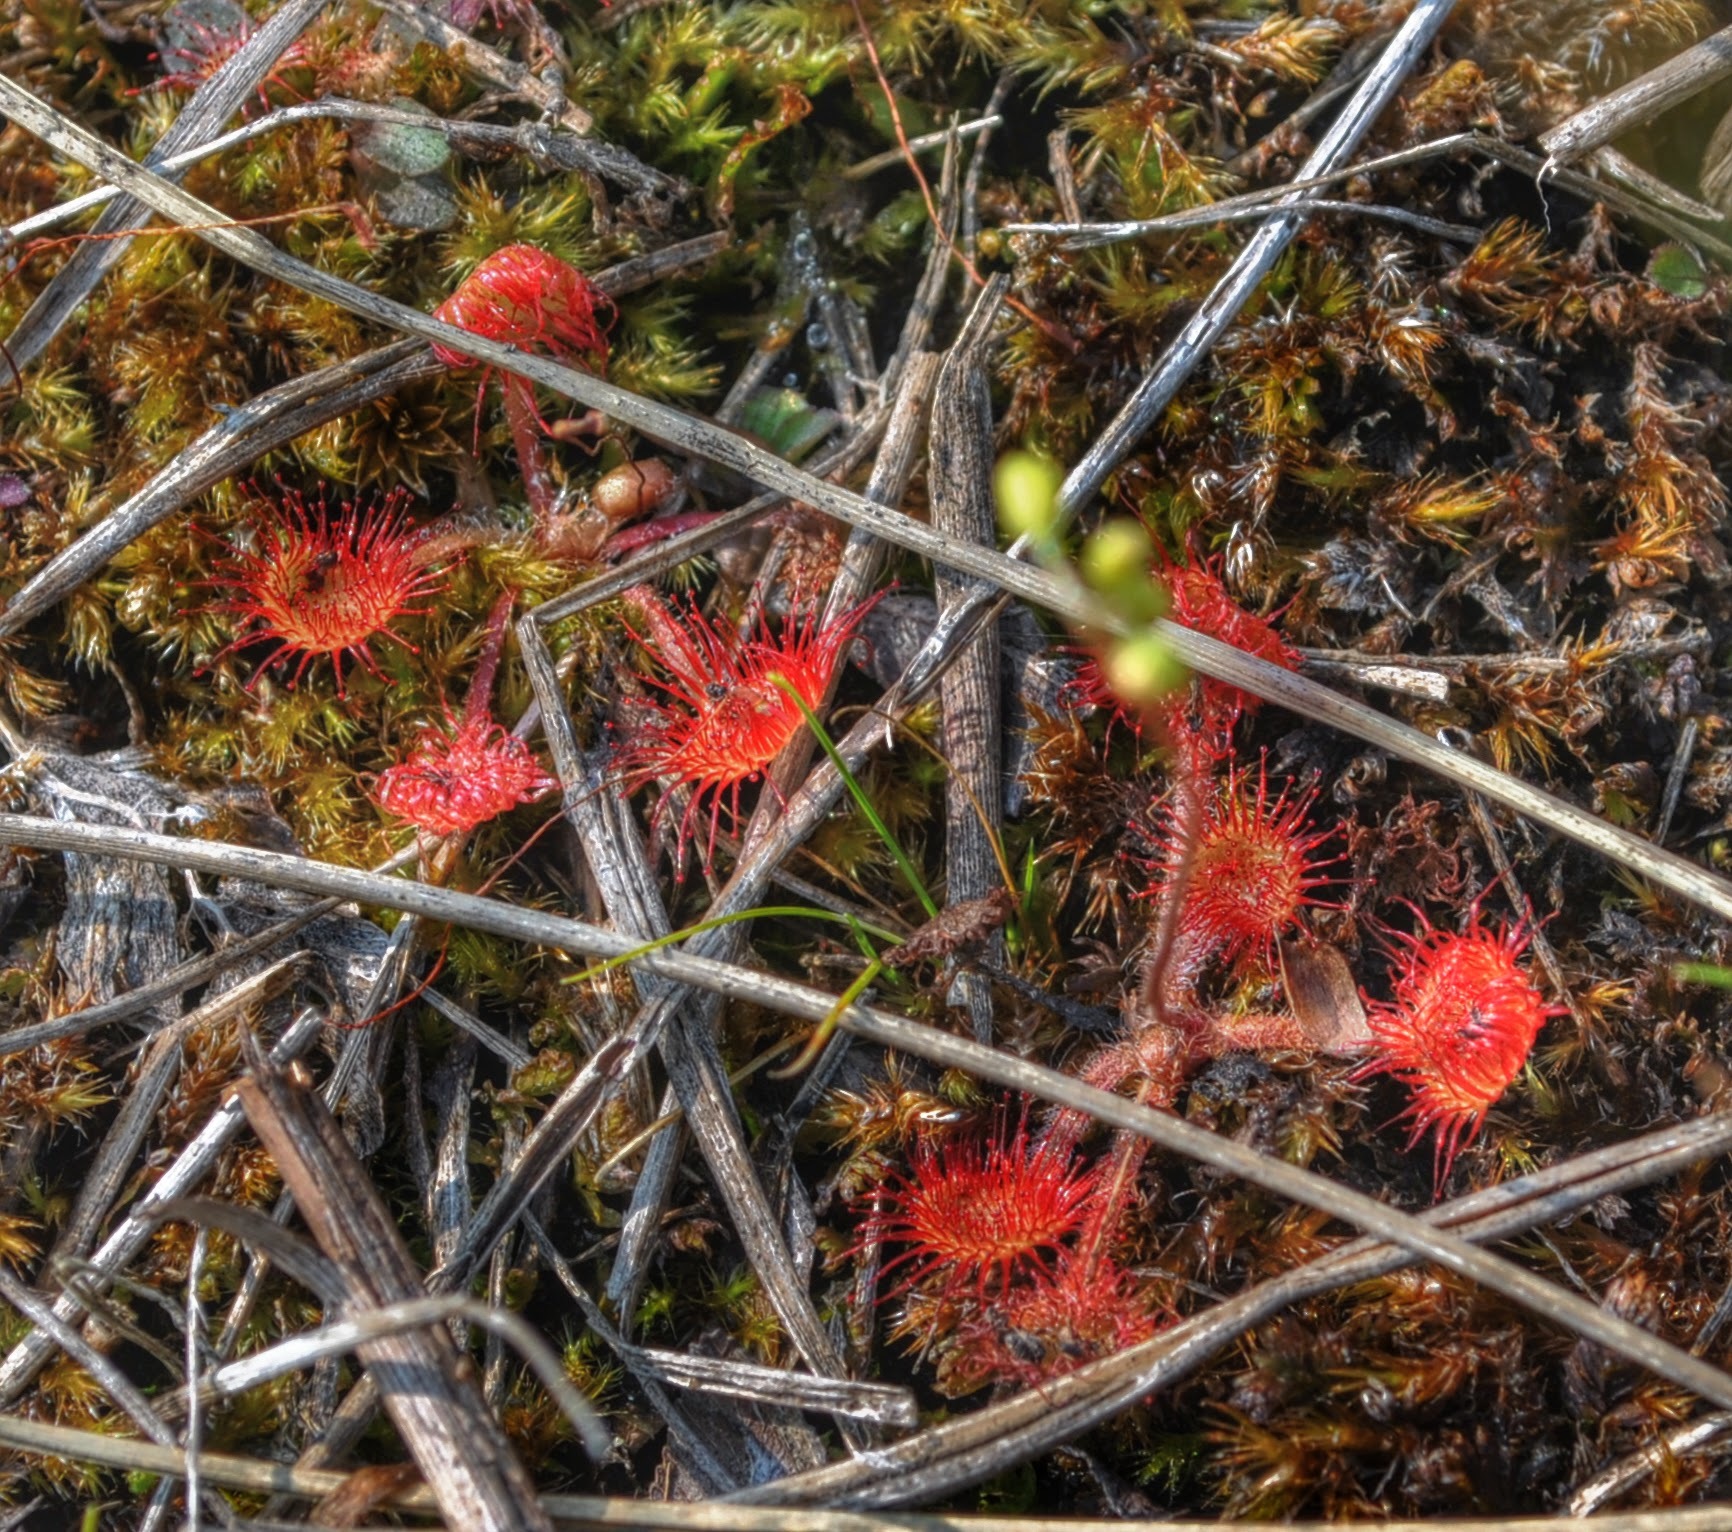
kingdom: Plantae
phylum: Tracheophyta
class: Magnoliopsida
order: Caryophyllales
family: Droseraceae
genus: Drosera
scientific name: Drosera rotundifolia
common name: Round-leaved sundew
